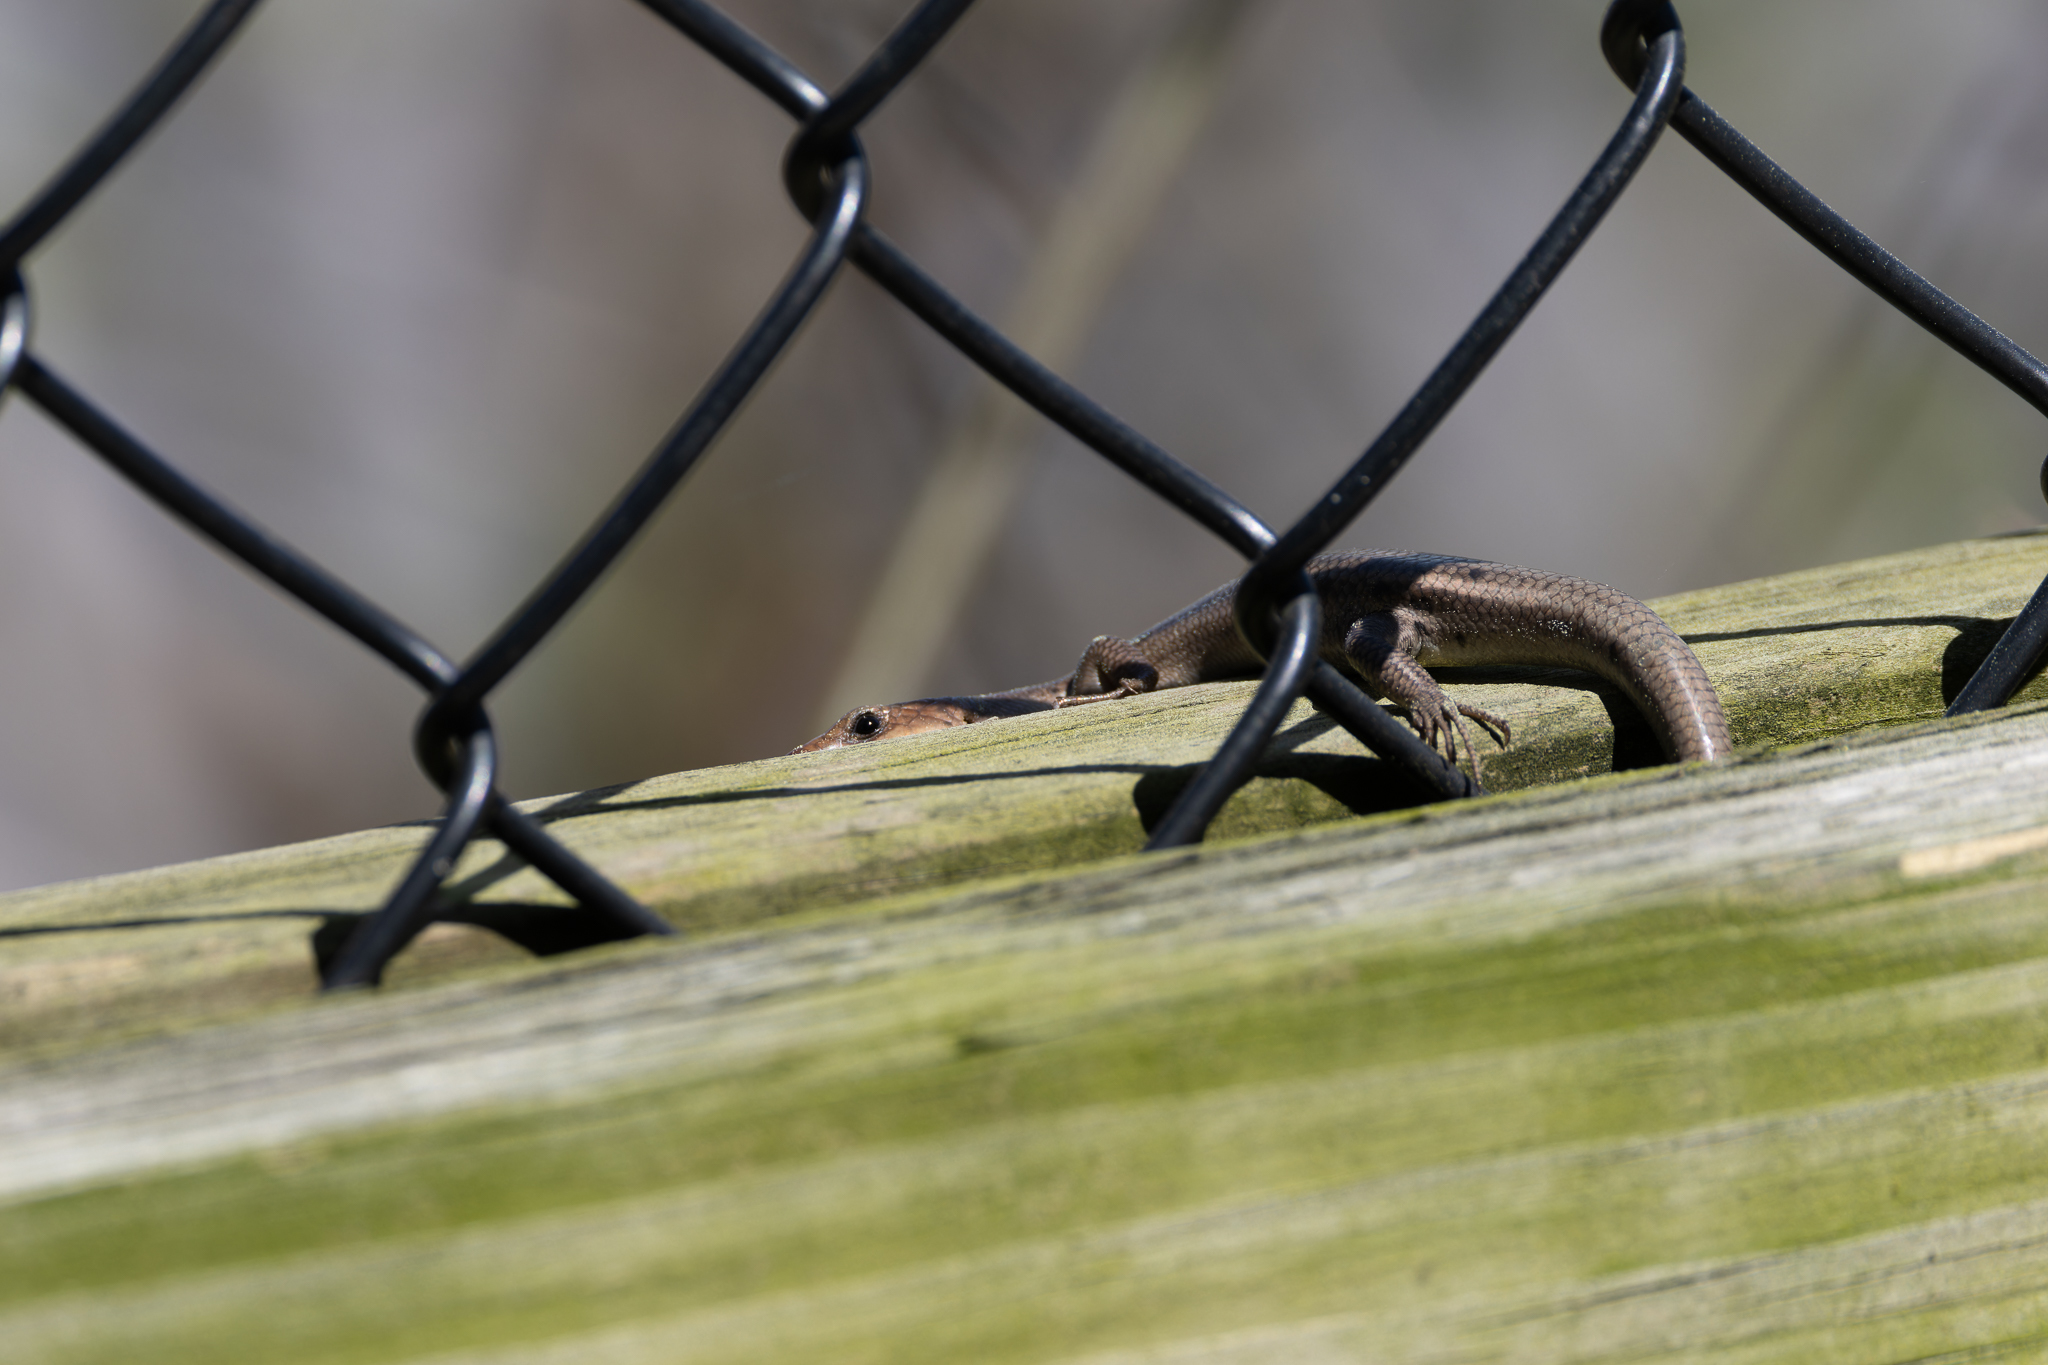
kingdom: Animalia
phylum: Chordata
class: Squamata
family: Scincidae
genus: Plestiodon
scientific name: Plestiodon fasciatus
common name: Five-lined skink
